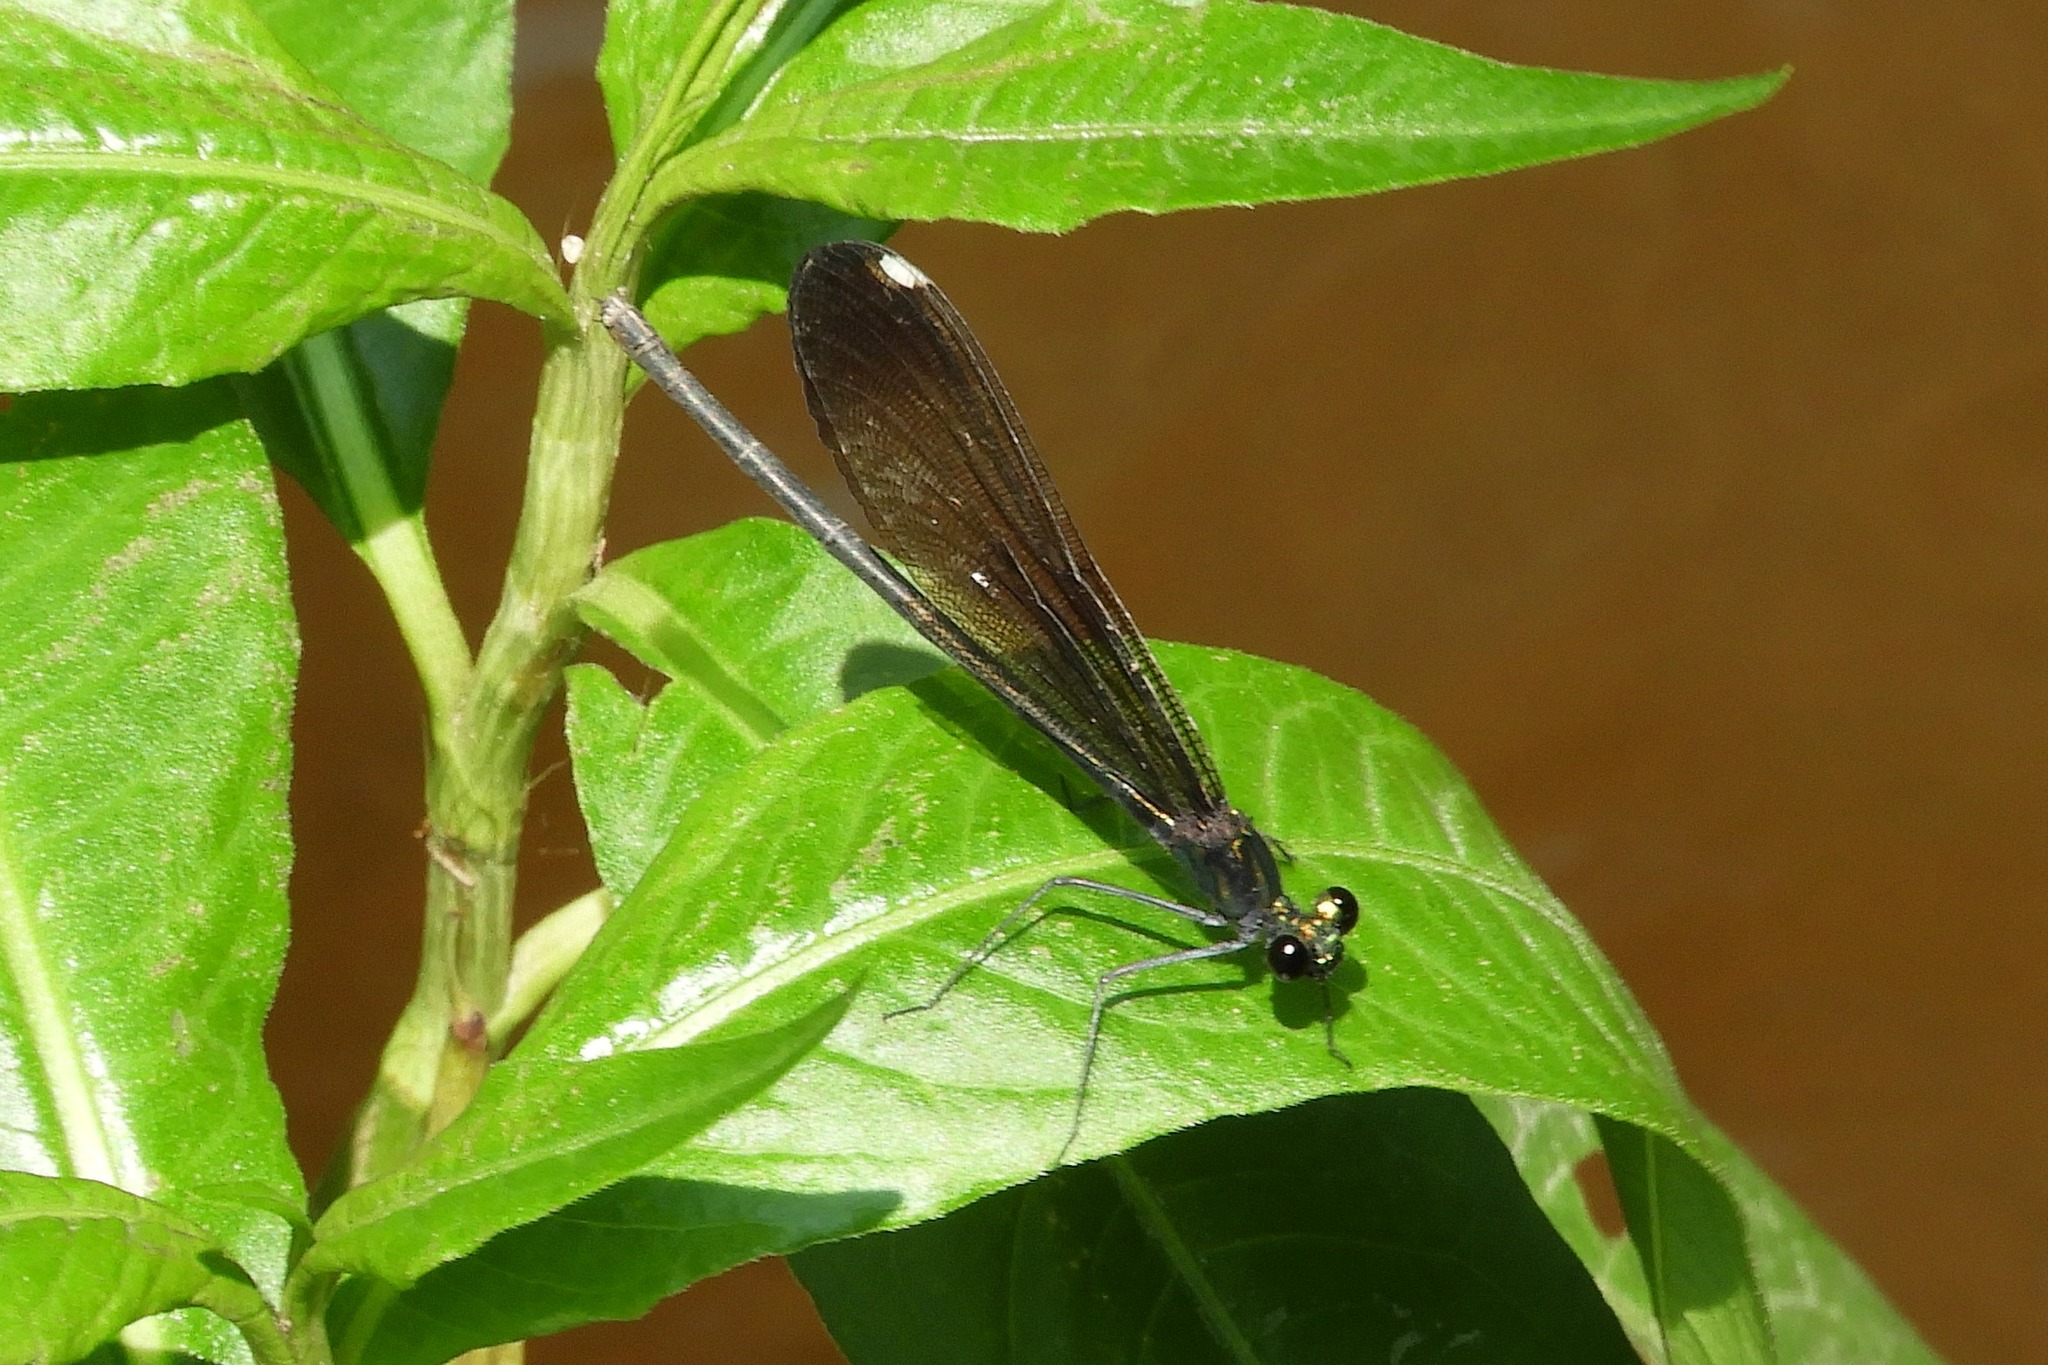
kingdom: Animalia
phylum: Arthropoda
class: Insecta
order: Odonata
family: Calopterygidae
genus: Calopteryx
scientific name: Calopteryx maculata
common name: Ebony jewelwing
